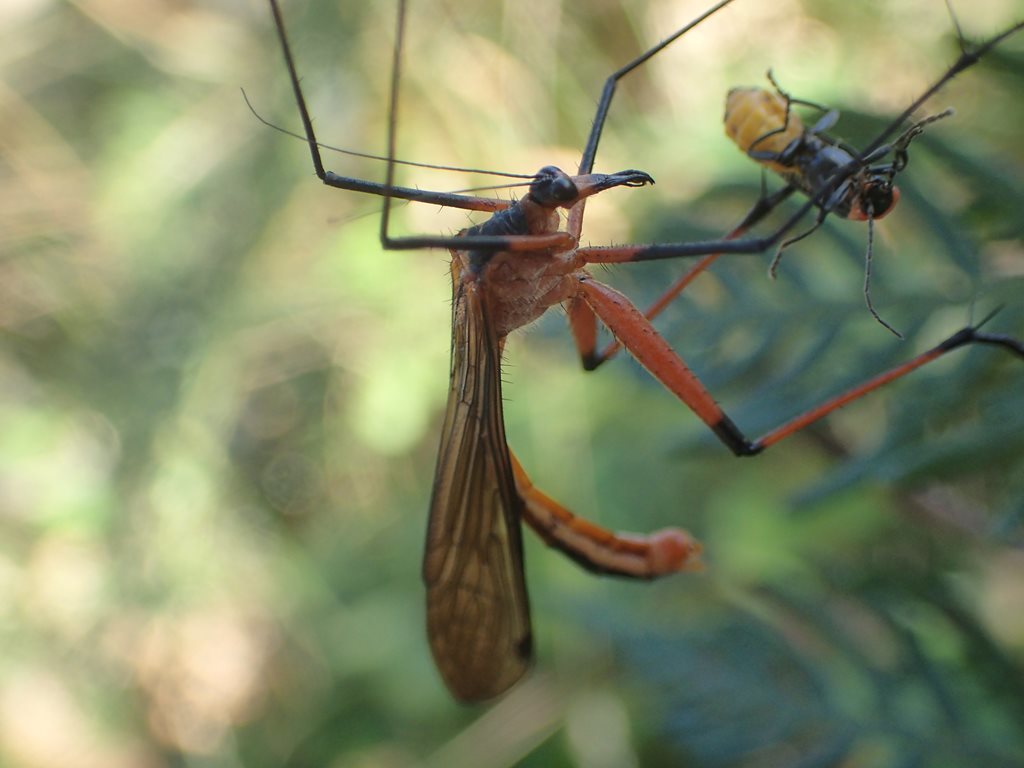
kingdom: Animalia
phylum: Arthropoda
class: Insecta
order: Mecoptera
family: Bittacidae
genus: Harpobittacus
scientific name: Harpobittacus australis
